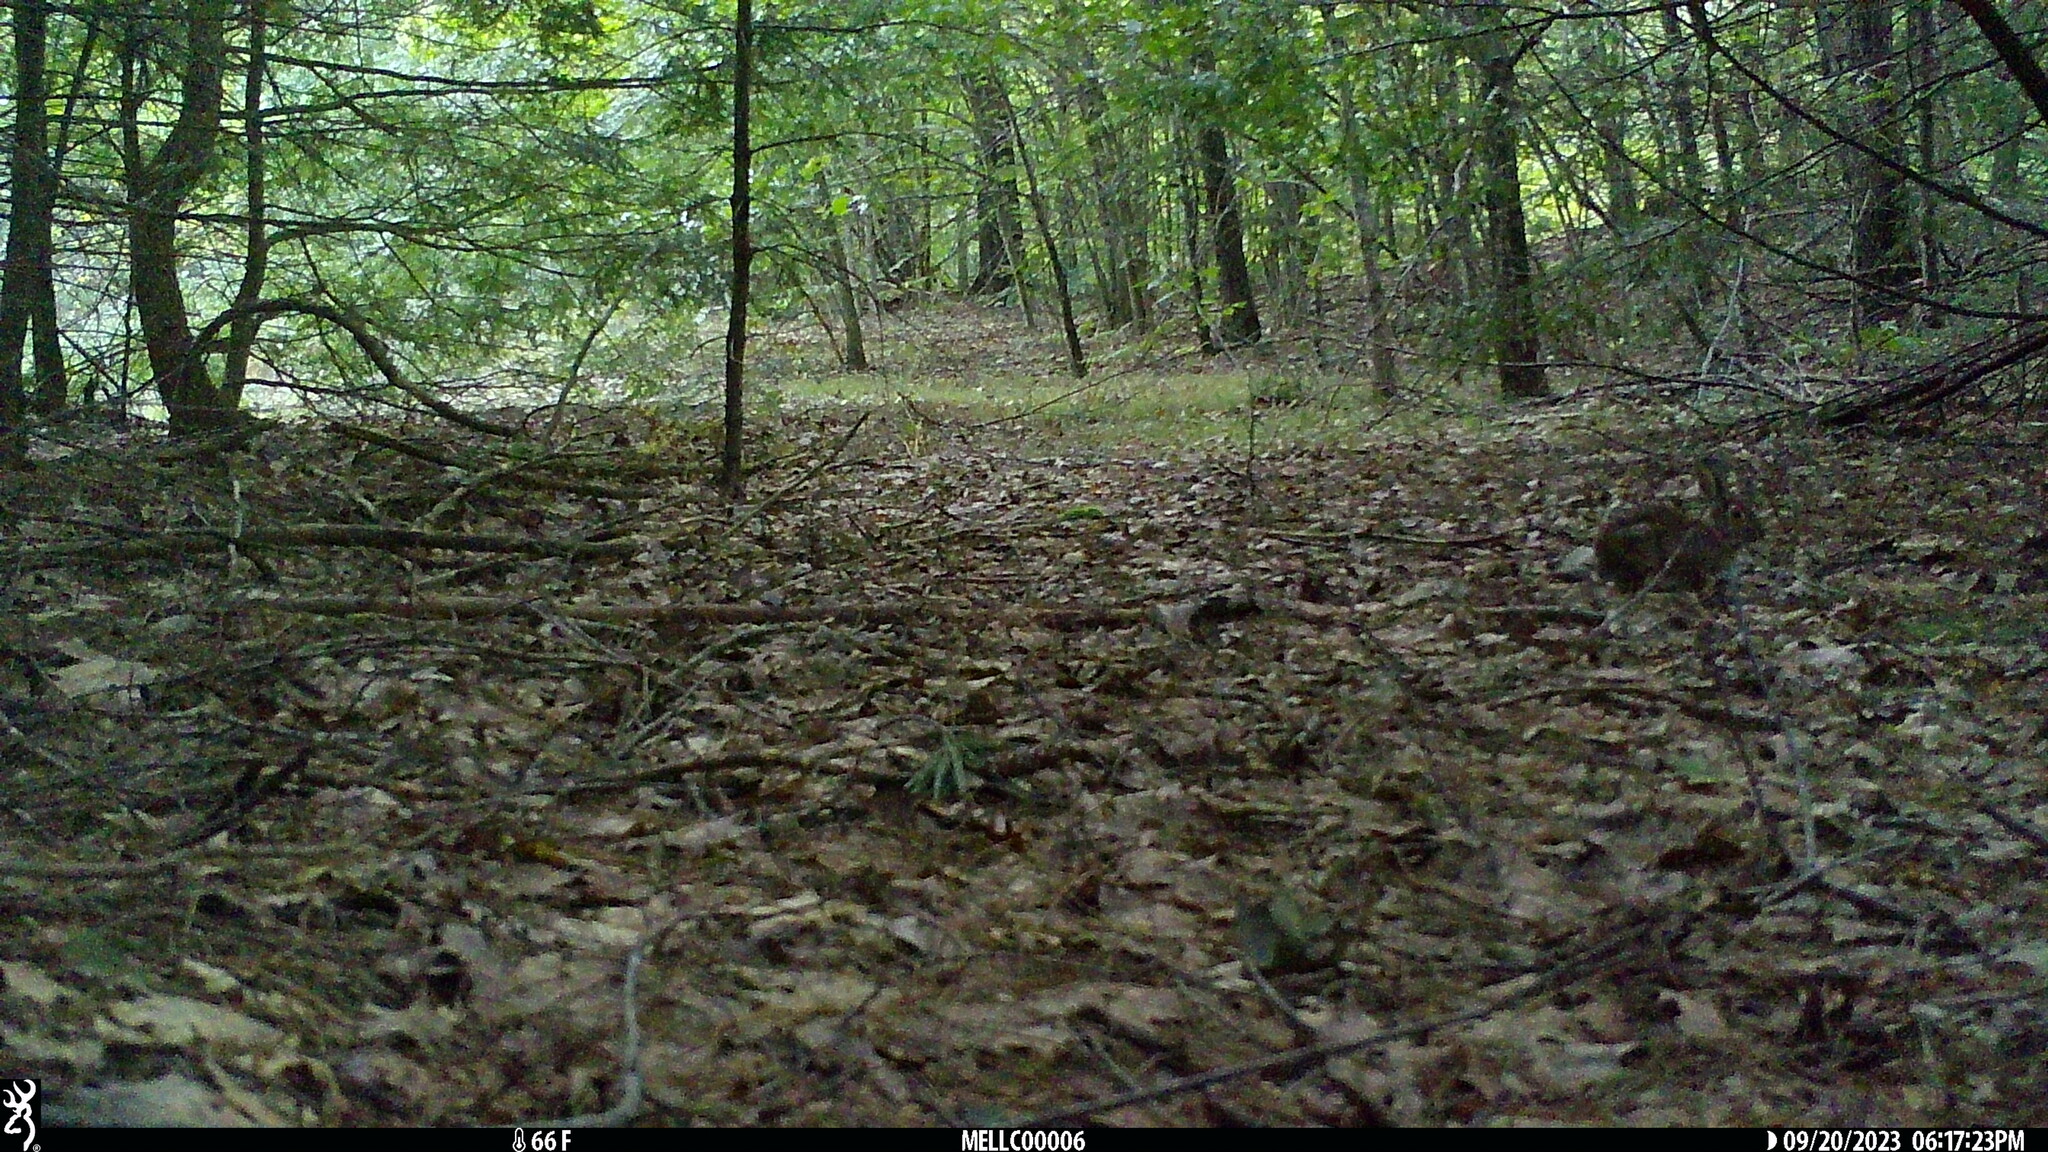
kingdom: Animalia
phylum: Chordata
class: Mammalia
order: Lagomorpha
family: Leporidae
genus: Sylvilagus
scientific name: Sylvilagus floridanus
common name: Eastern cottontail
